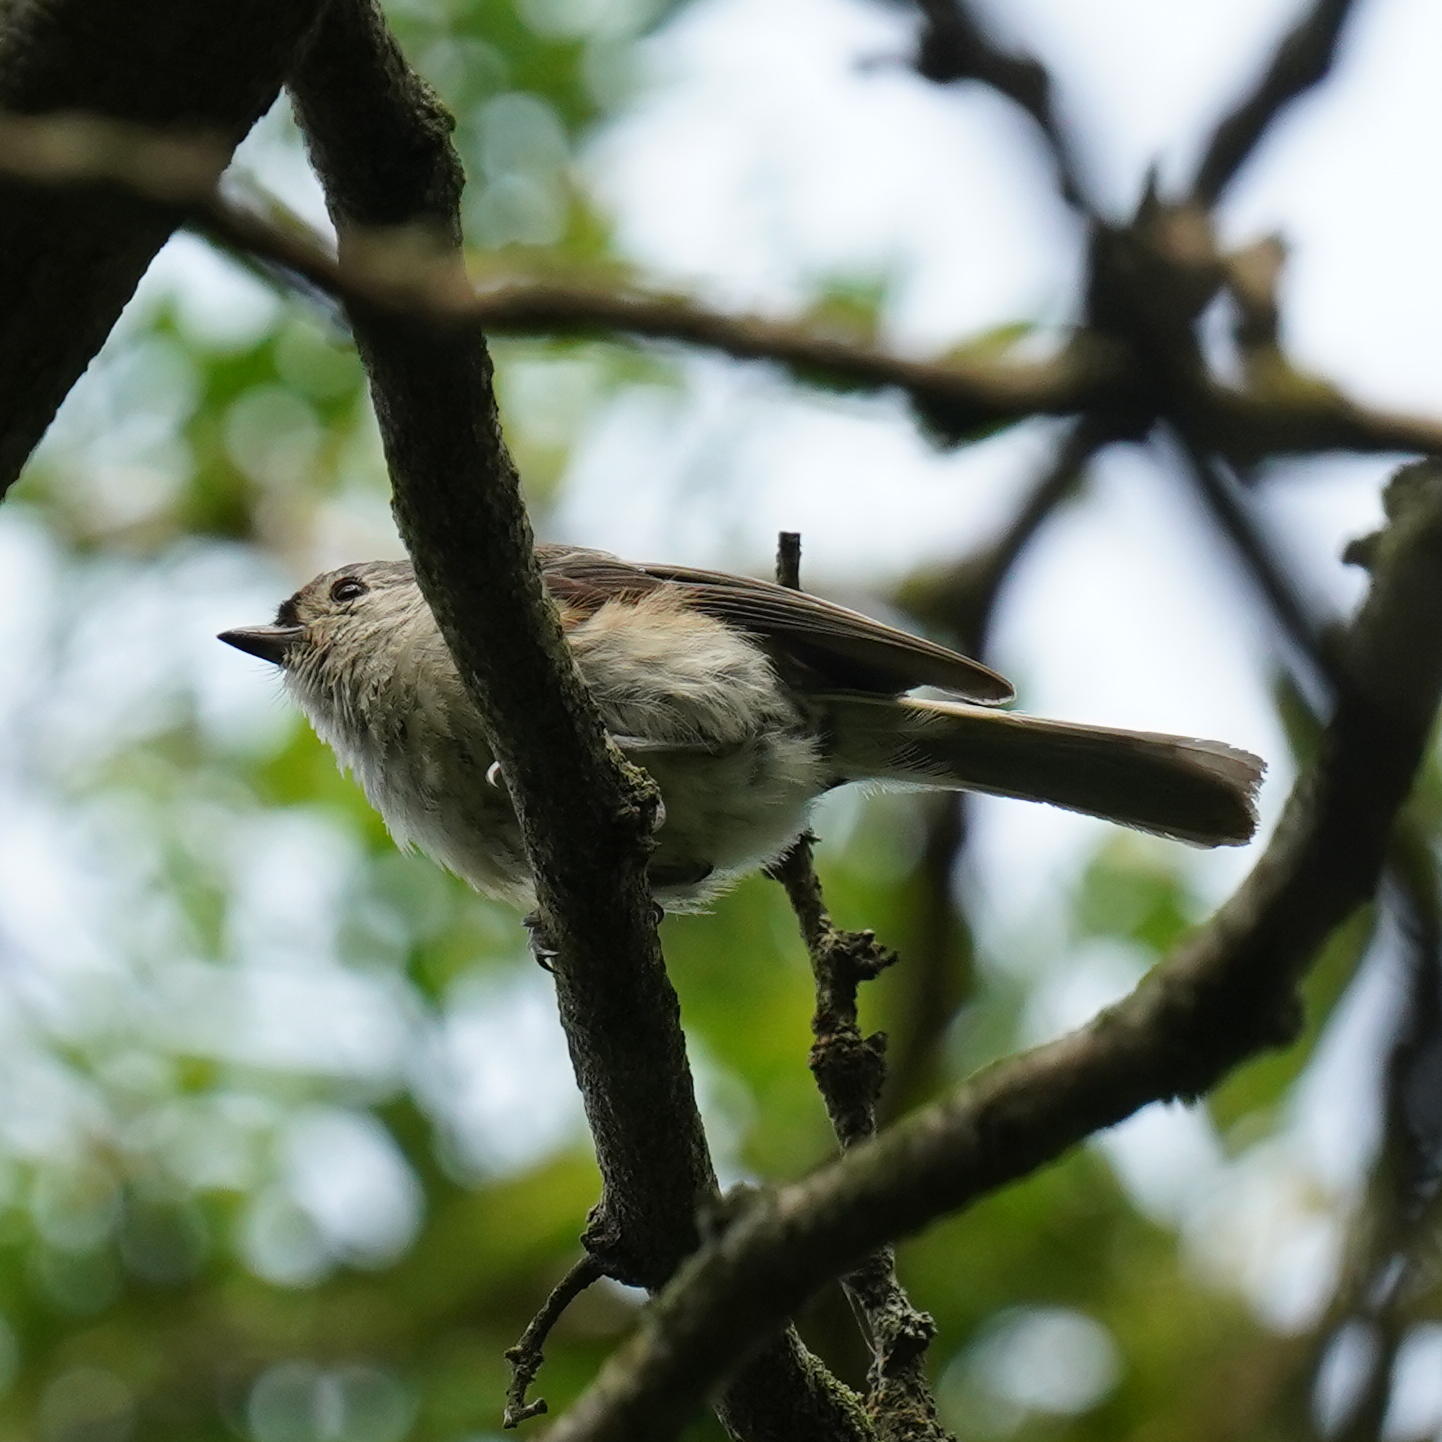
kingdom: Animalia
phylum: Chordata
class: Aves
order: Passeriformes
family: Paridae
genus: Baeolophus
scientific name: Baeolophus bicolor
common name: Tufted titmouse
